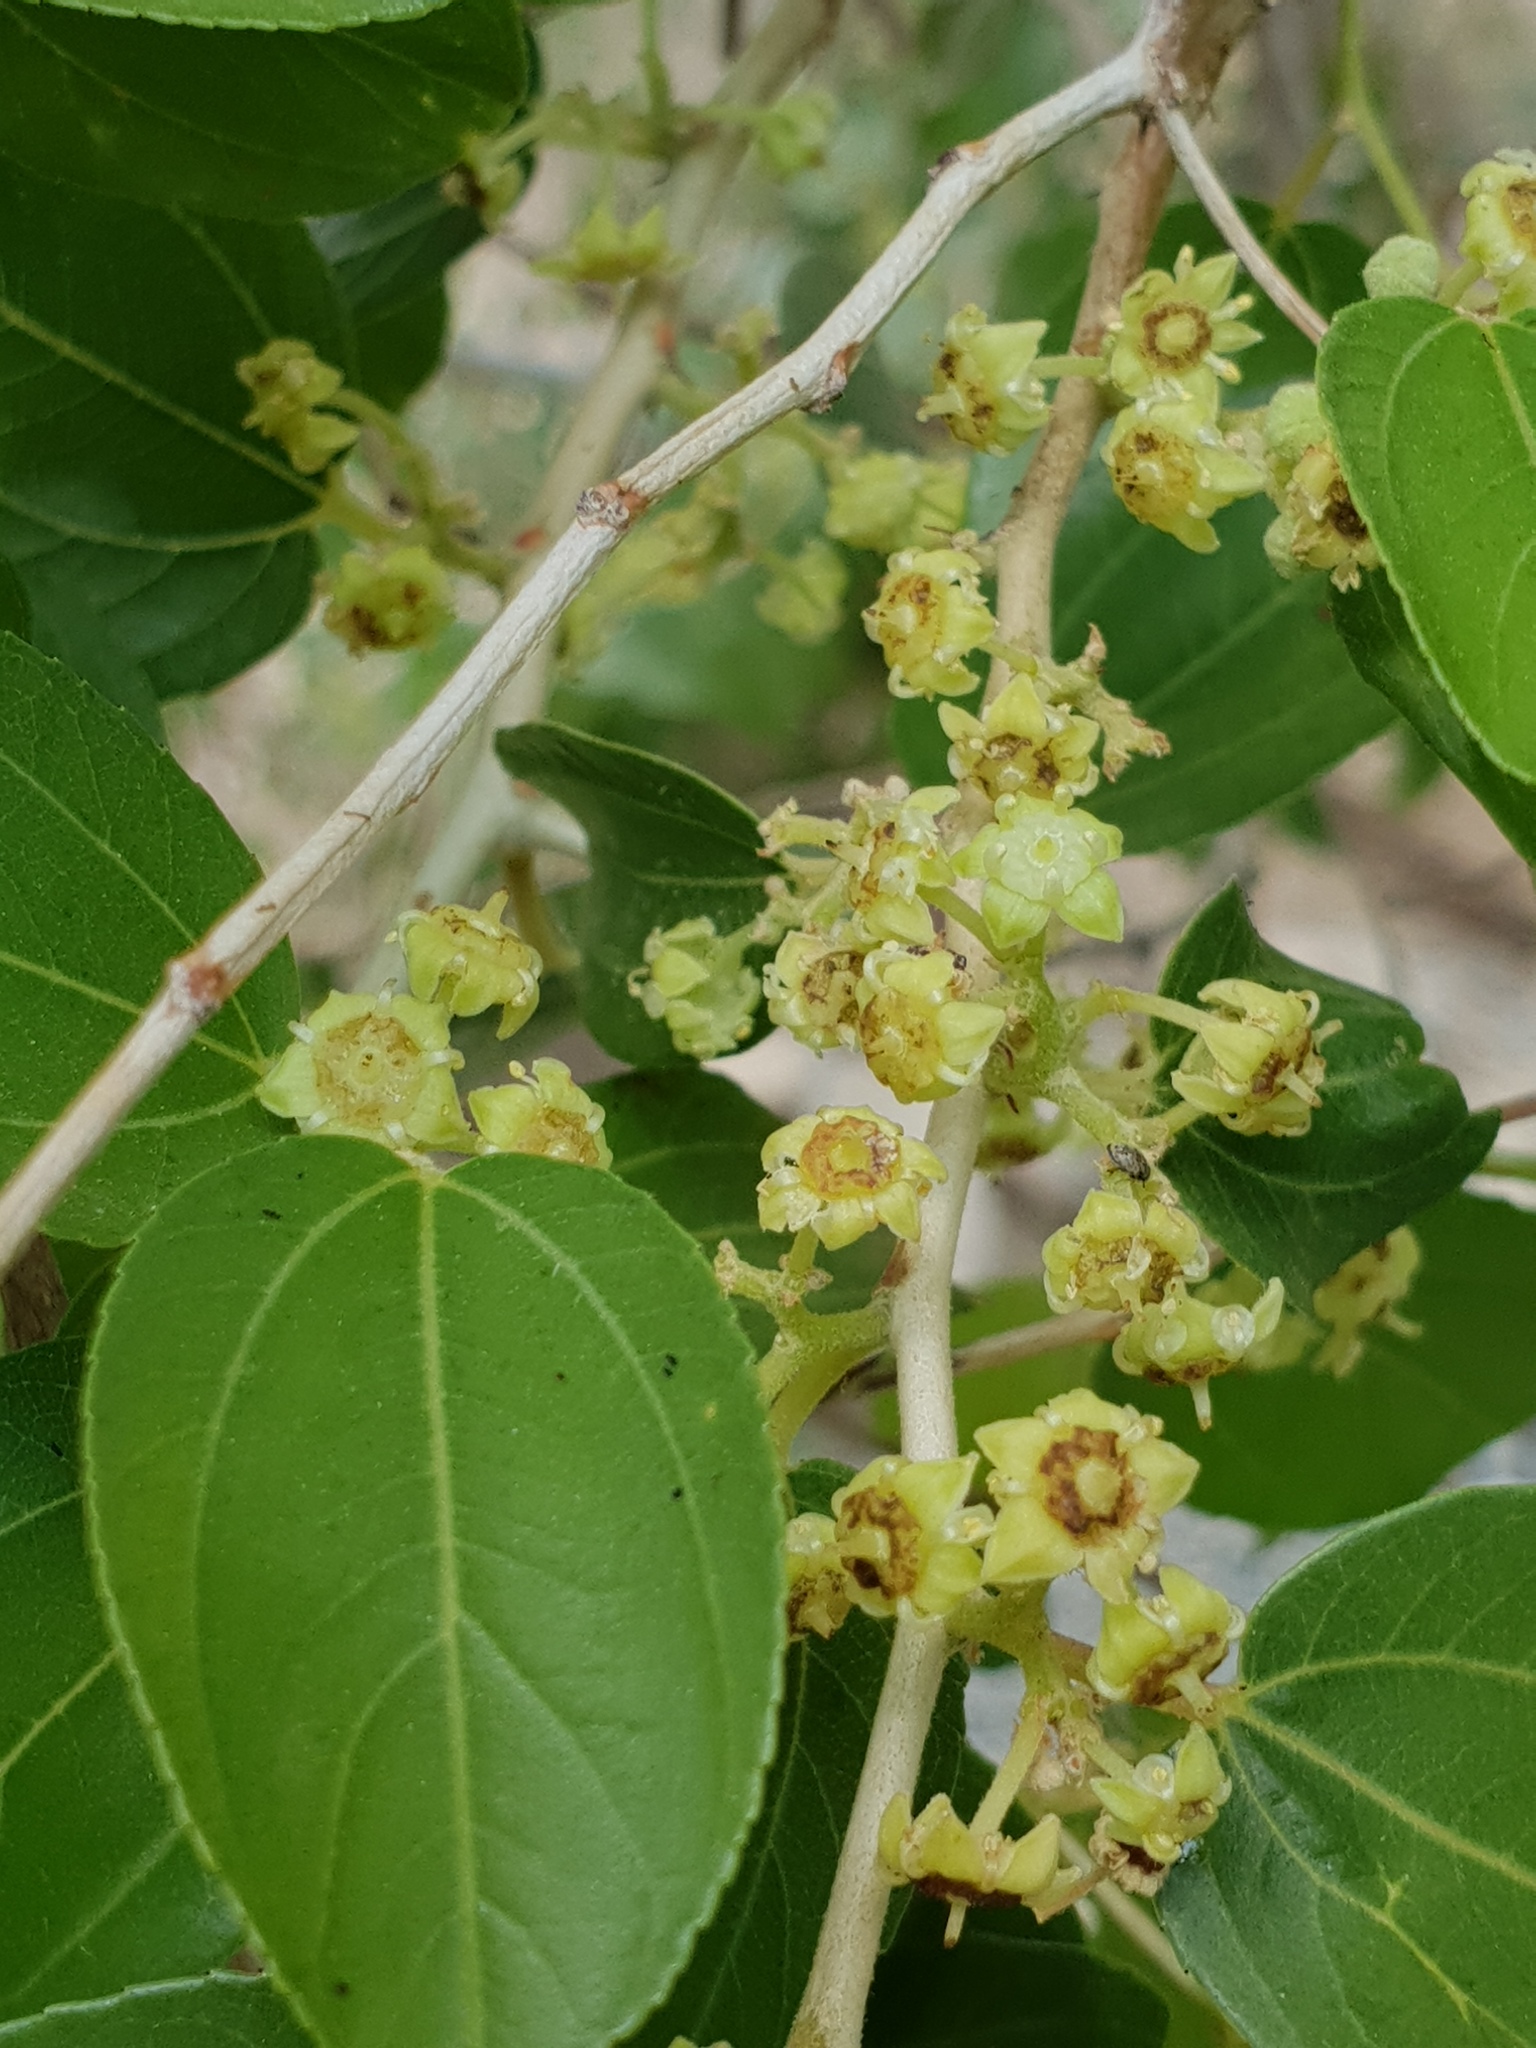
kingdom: Plantae
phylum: Tracheophyta
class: Magnoliopsida
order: Rosales
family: Rhamnaceae
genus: Ziziphus
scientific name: Ziziphus spina-christi
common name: Syrian christ-thorn
